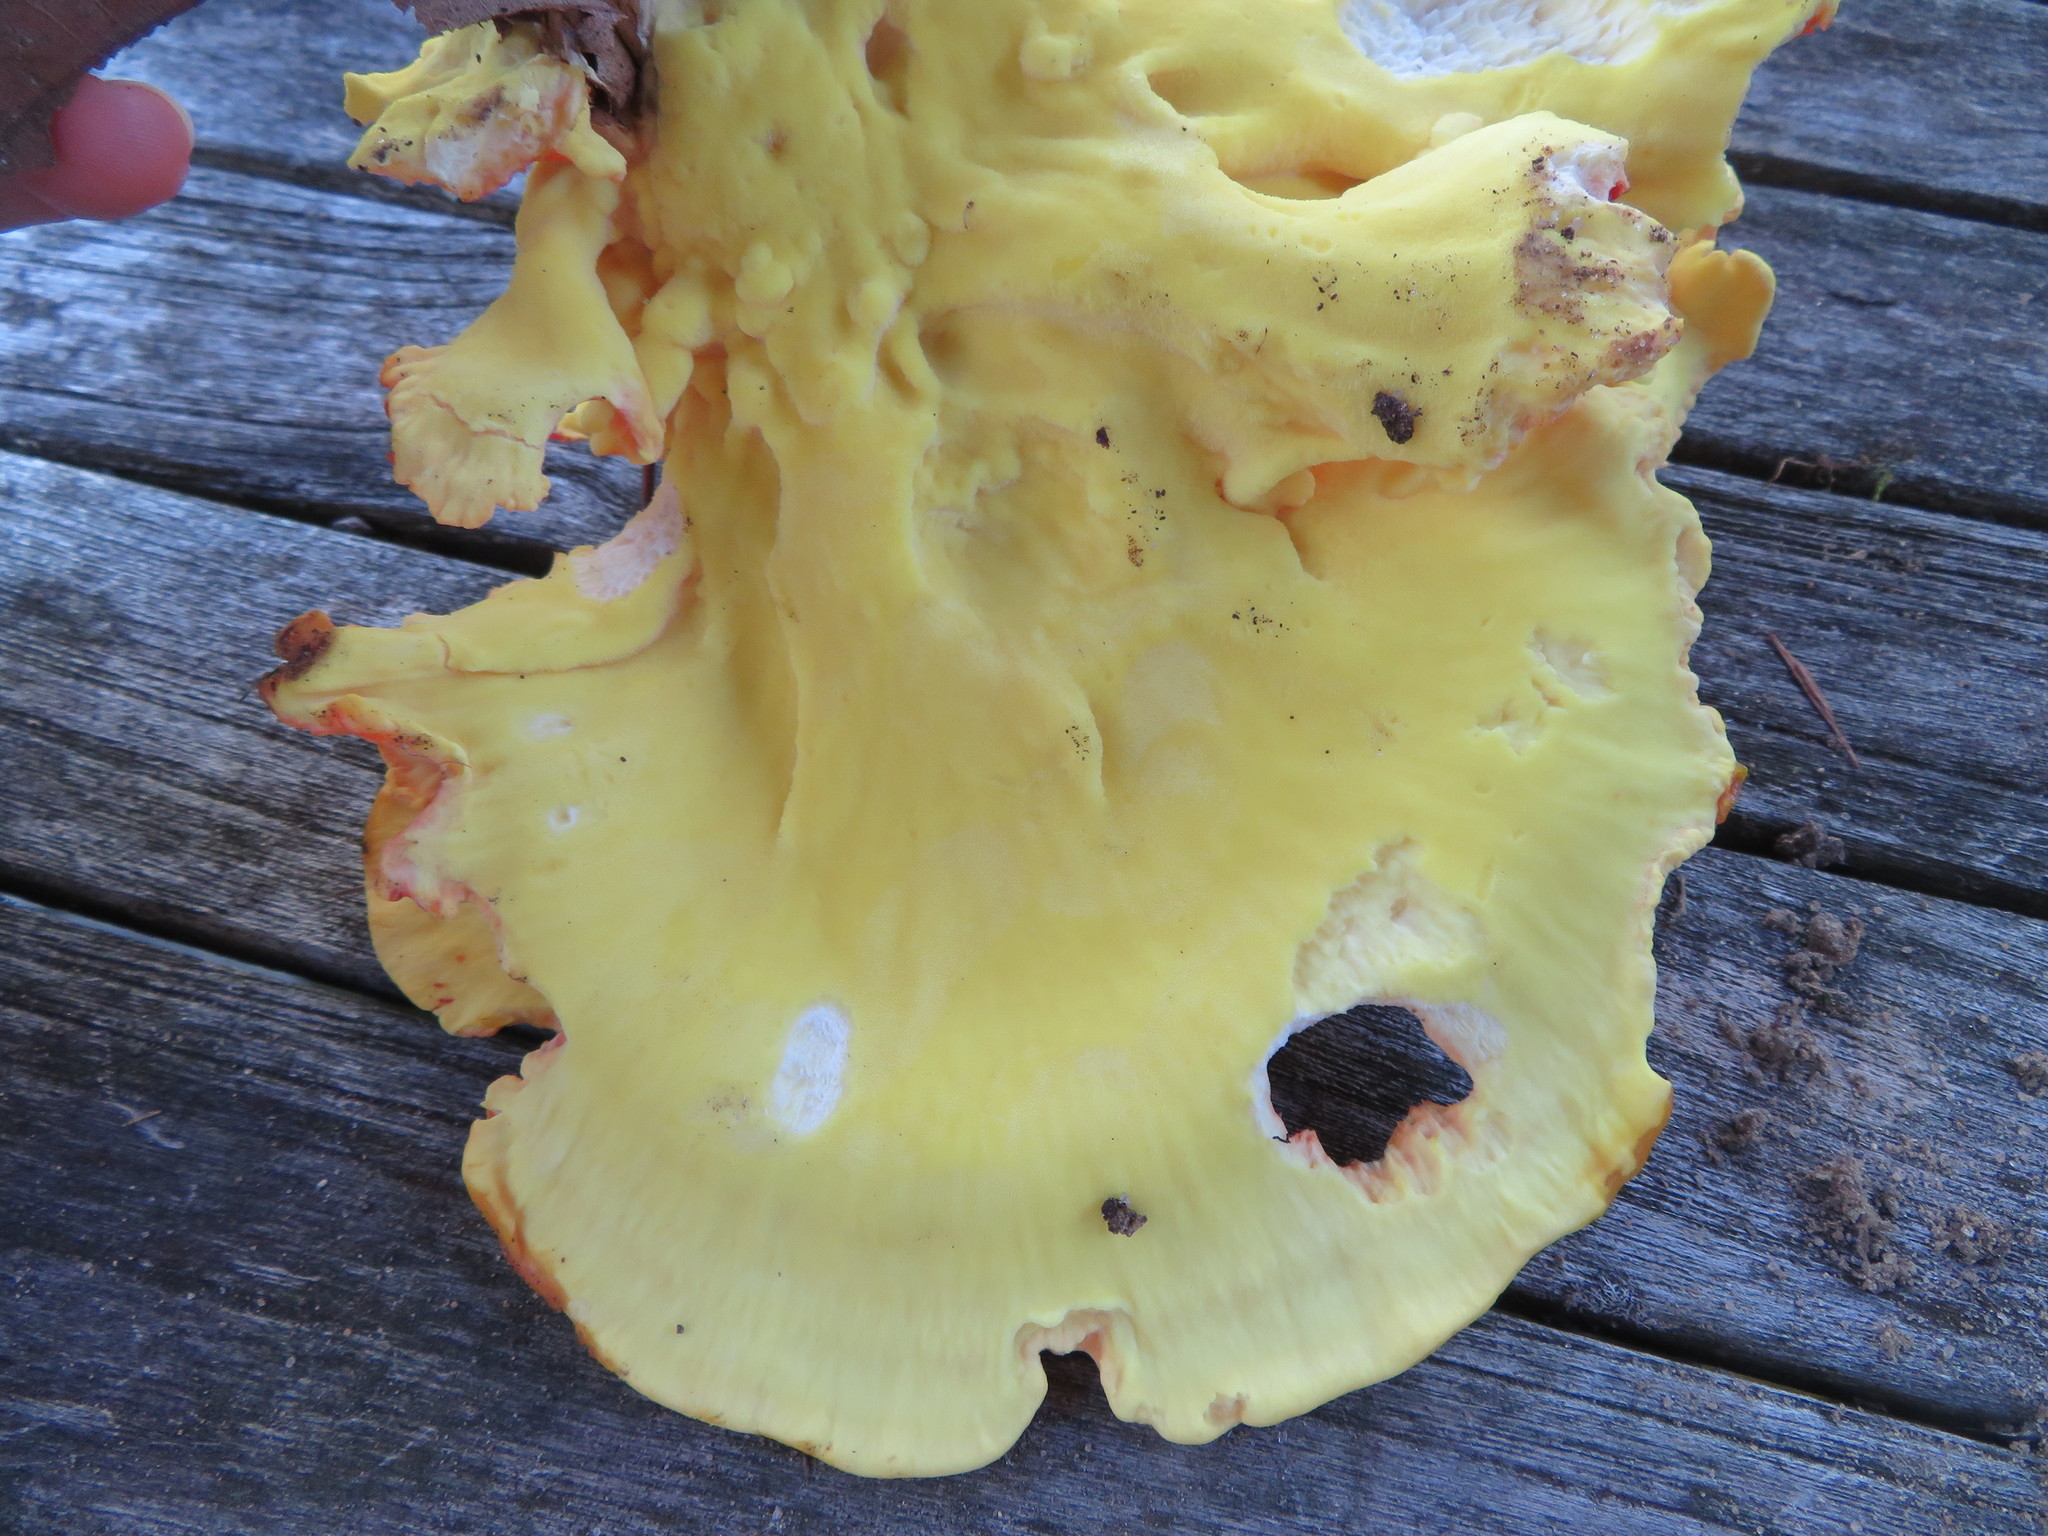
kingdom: Fungi
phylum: Basidiomycota
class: Agaricomycetes
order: Polyporales
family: Laetiporaceae
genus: Laetiporus
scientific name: Laetiporus sulphureus
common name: Chicken of the woods
